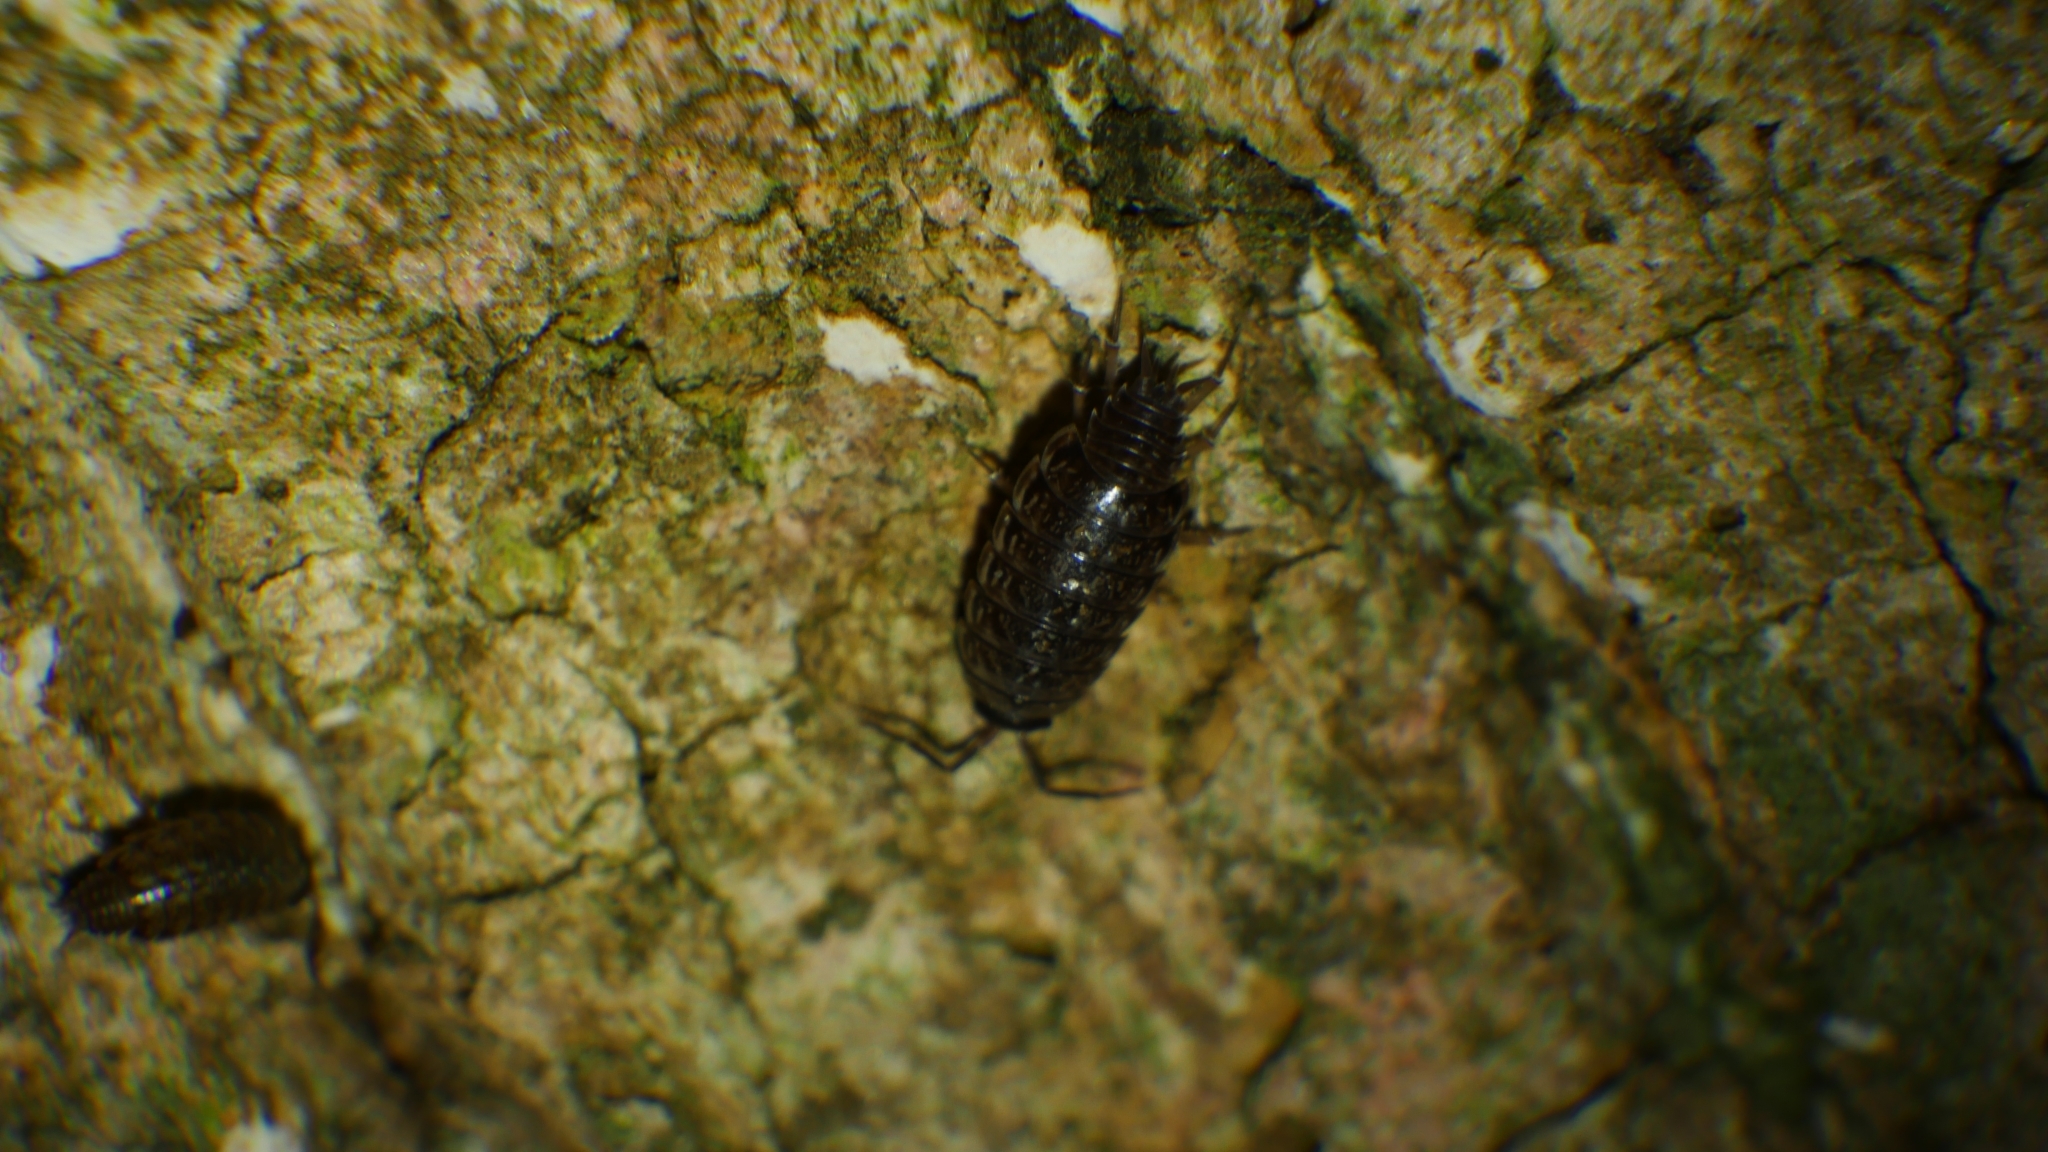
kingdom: Animalia
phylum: Arthropoda
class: Malacostraca
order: Isopoda
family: Philosciidae
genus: Philoscia
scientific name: Philoscia muscorum
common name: Common striped woodlouse
